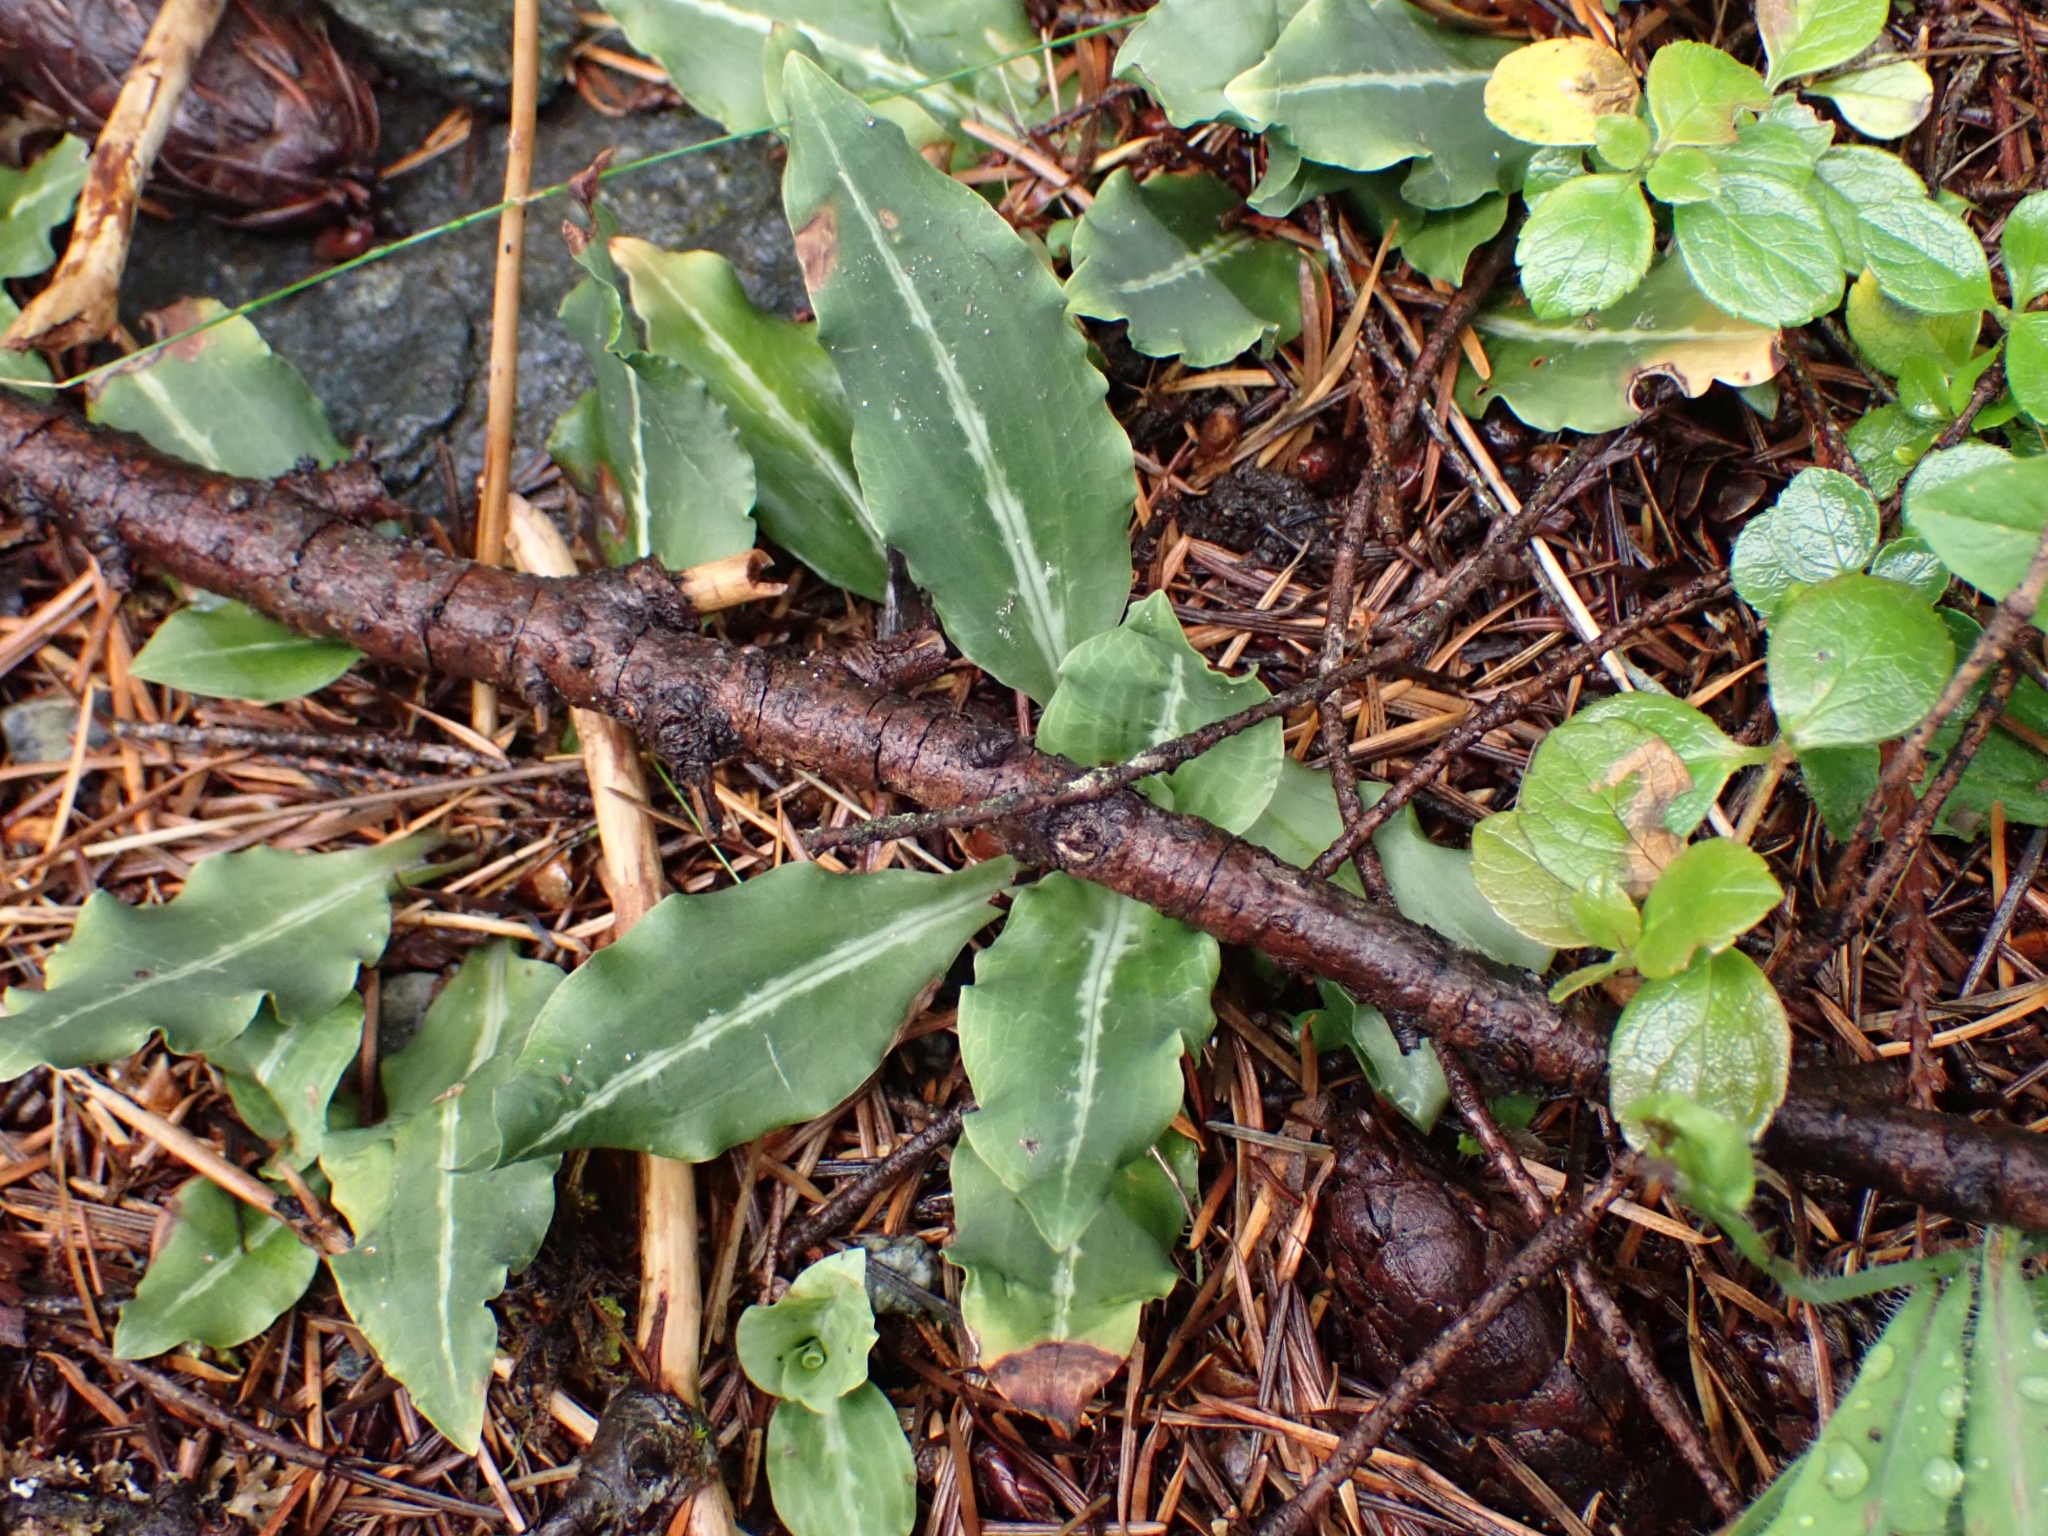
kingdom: Plantae
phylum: Tracheophyta
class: Liliopsida
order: Asparagales
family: Orchidaceae
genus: Goodyera
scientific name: Goodyera oblongifolia
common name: Giant rattlesnake-plantain
